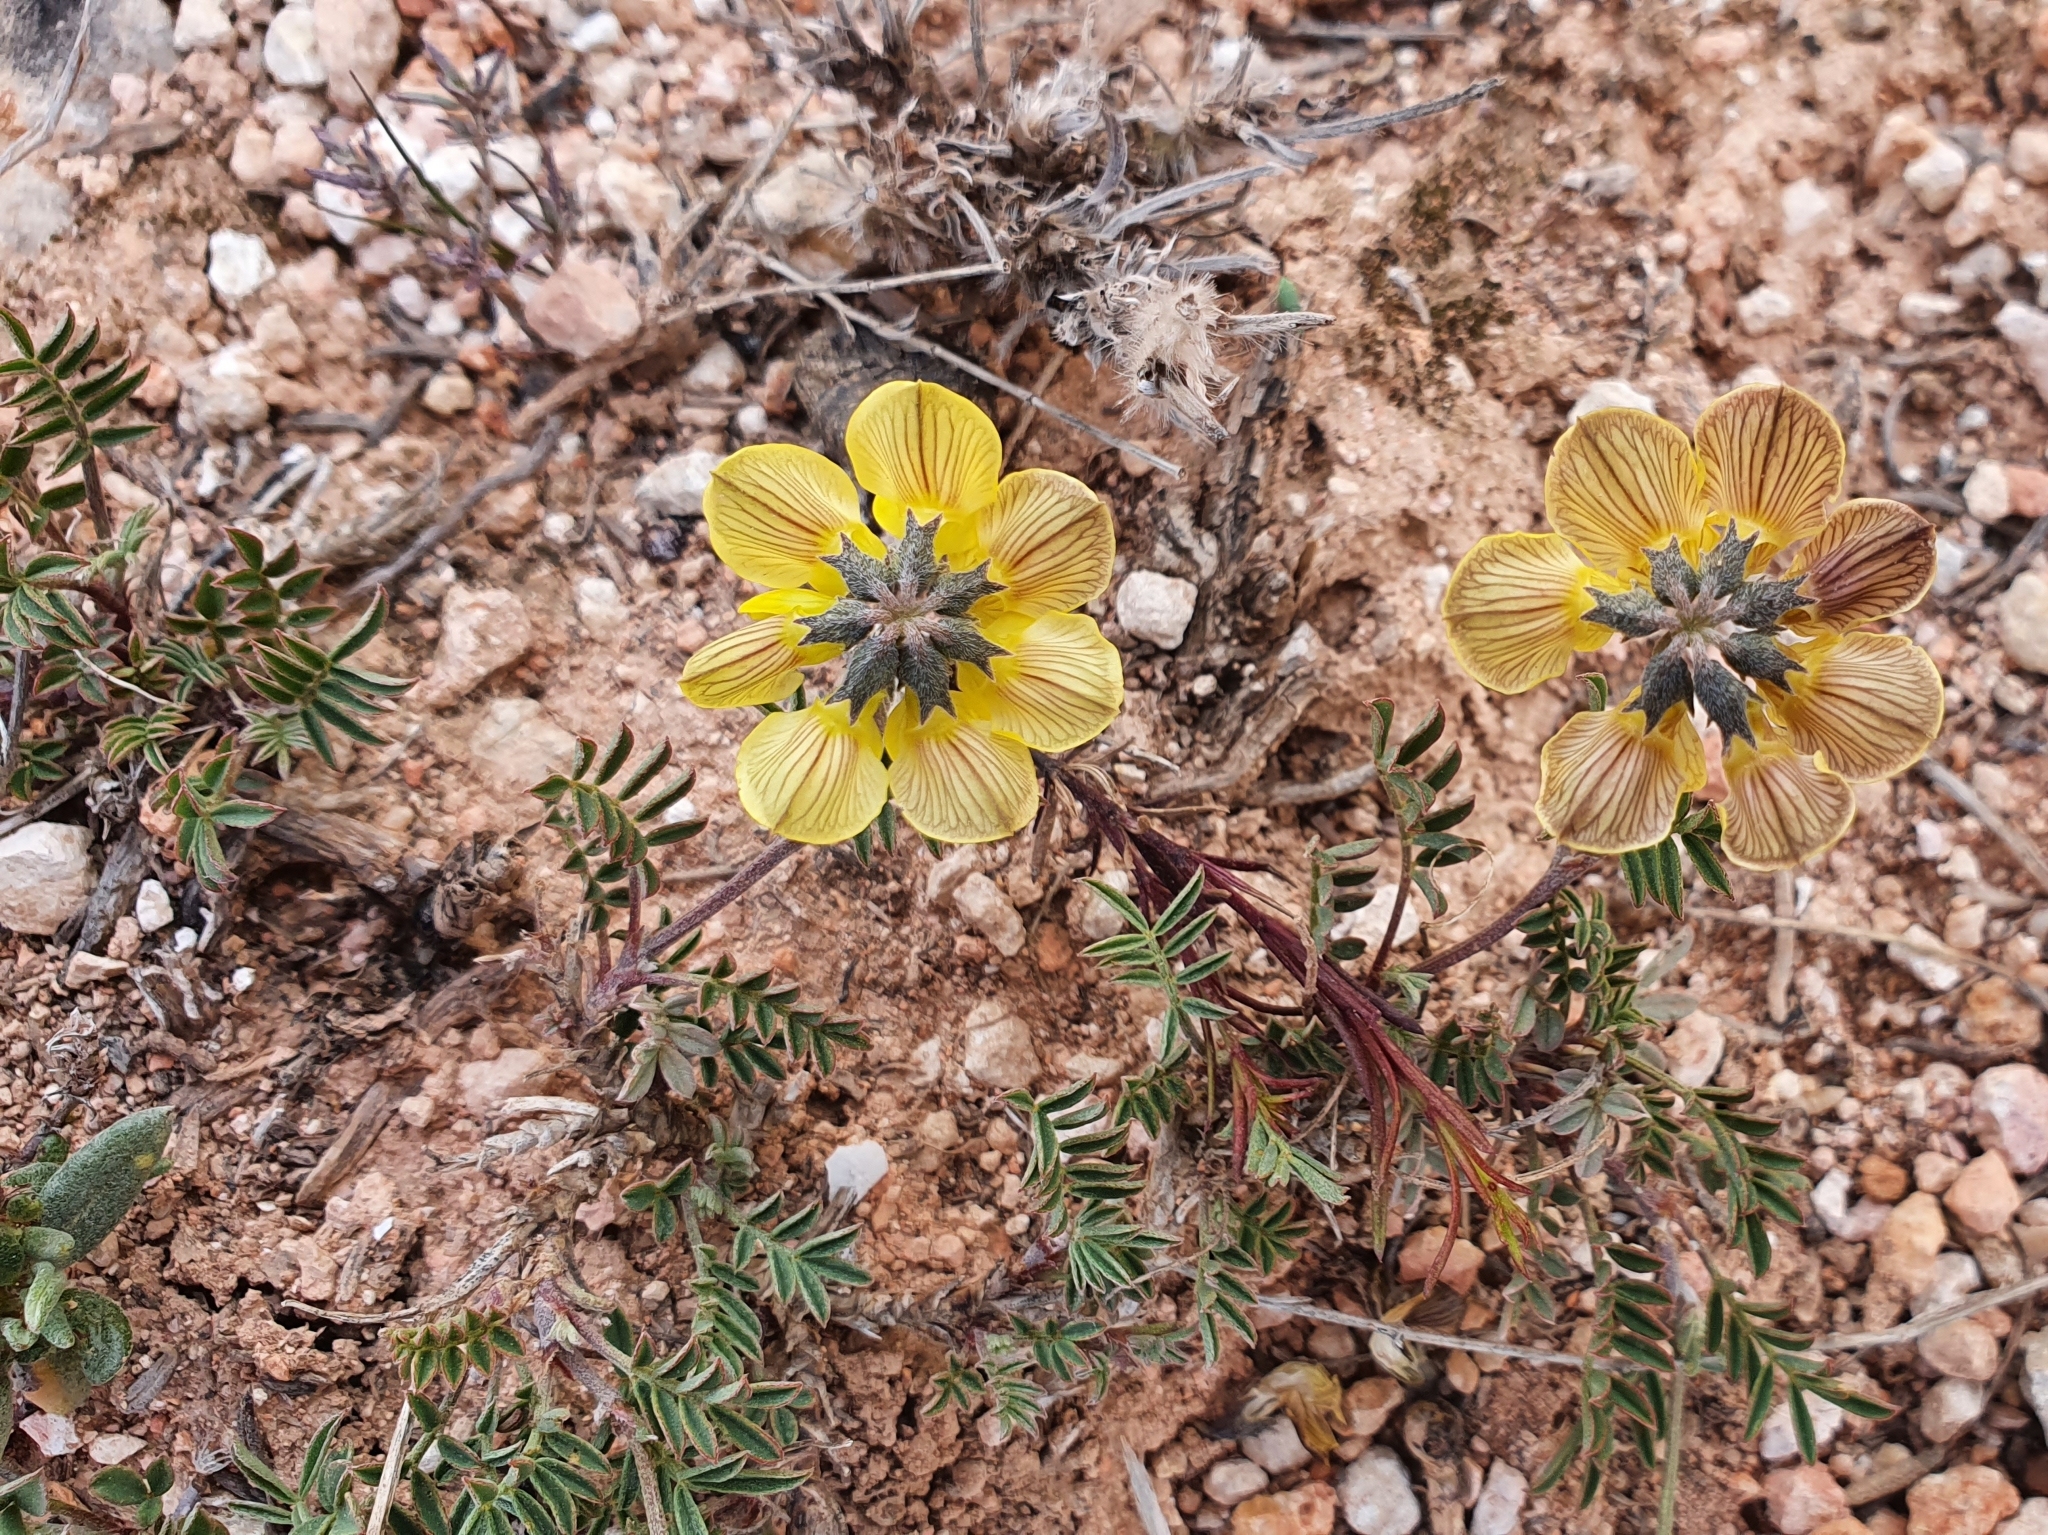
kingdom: Plantae
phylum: Tracheophyta
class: Magnoliopsida
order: Fabales
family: Fabaceae
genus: Hippocrepis
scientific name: Hippocrepis atlantica
